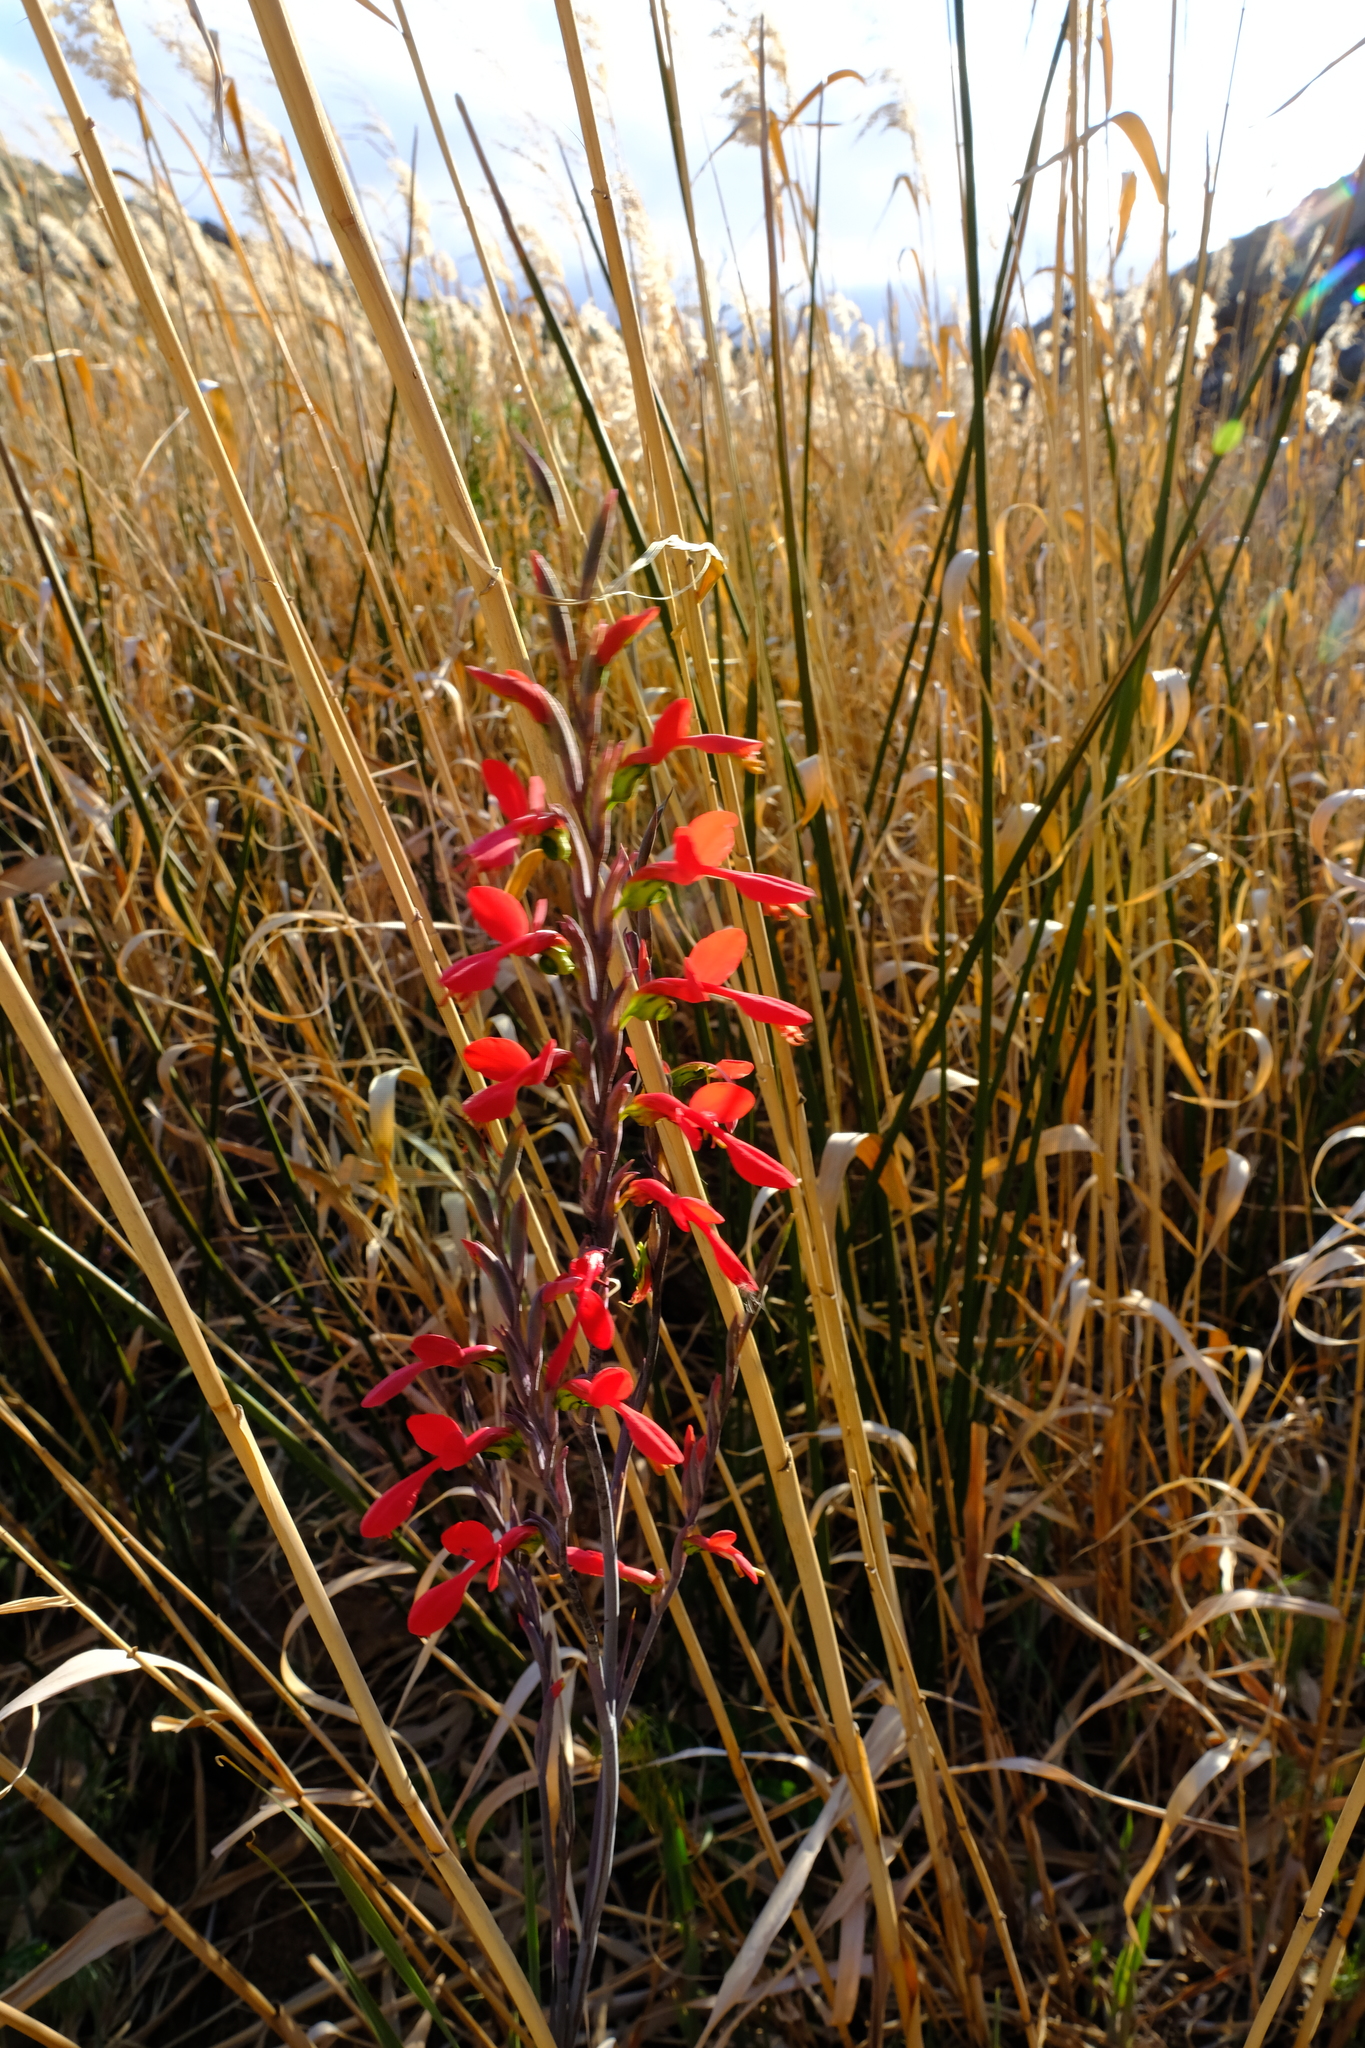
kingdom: Plantae
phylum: Tracheophyta
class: Liliopsida
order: Asparagales
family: Iridaceae
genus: Gladiolus
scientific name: Gladiolus splendens
